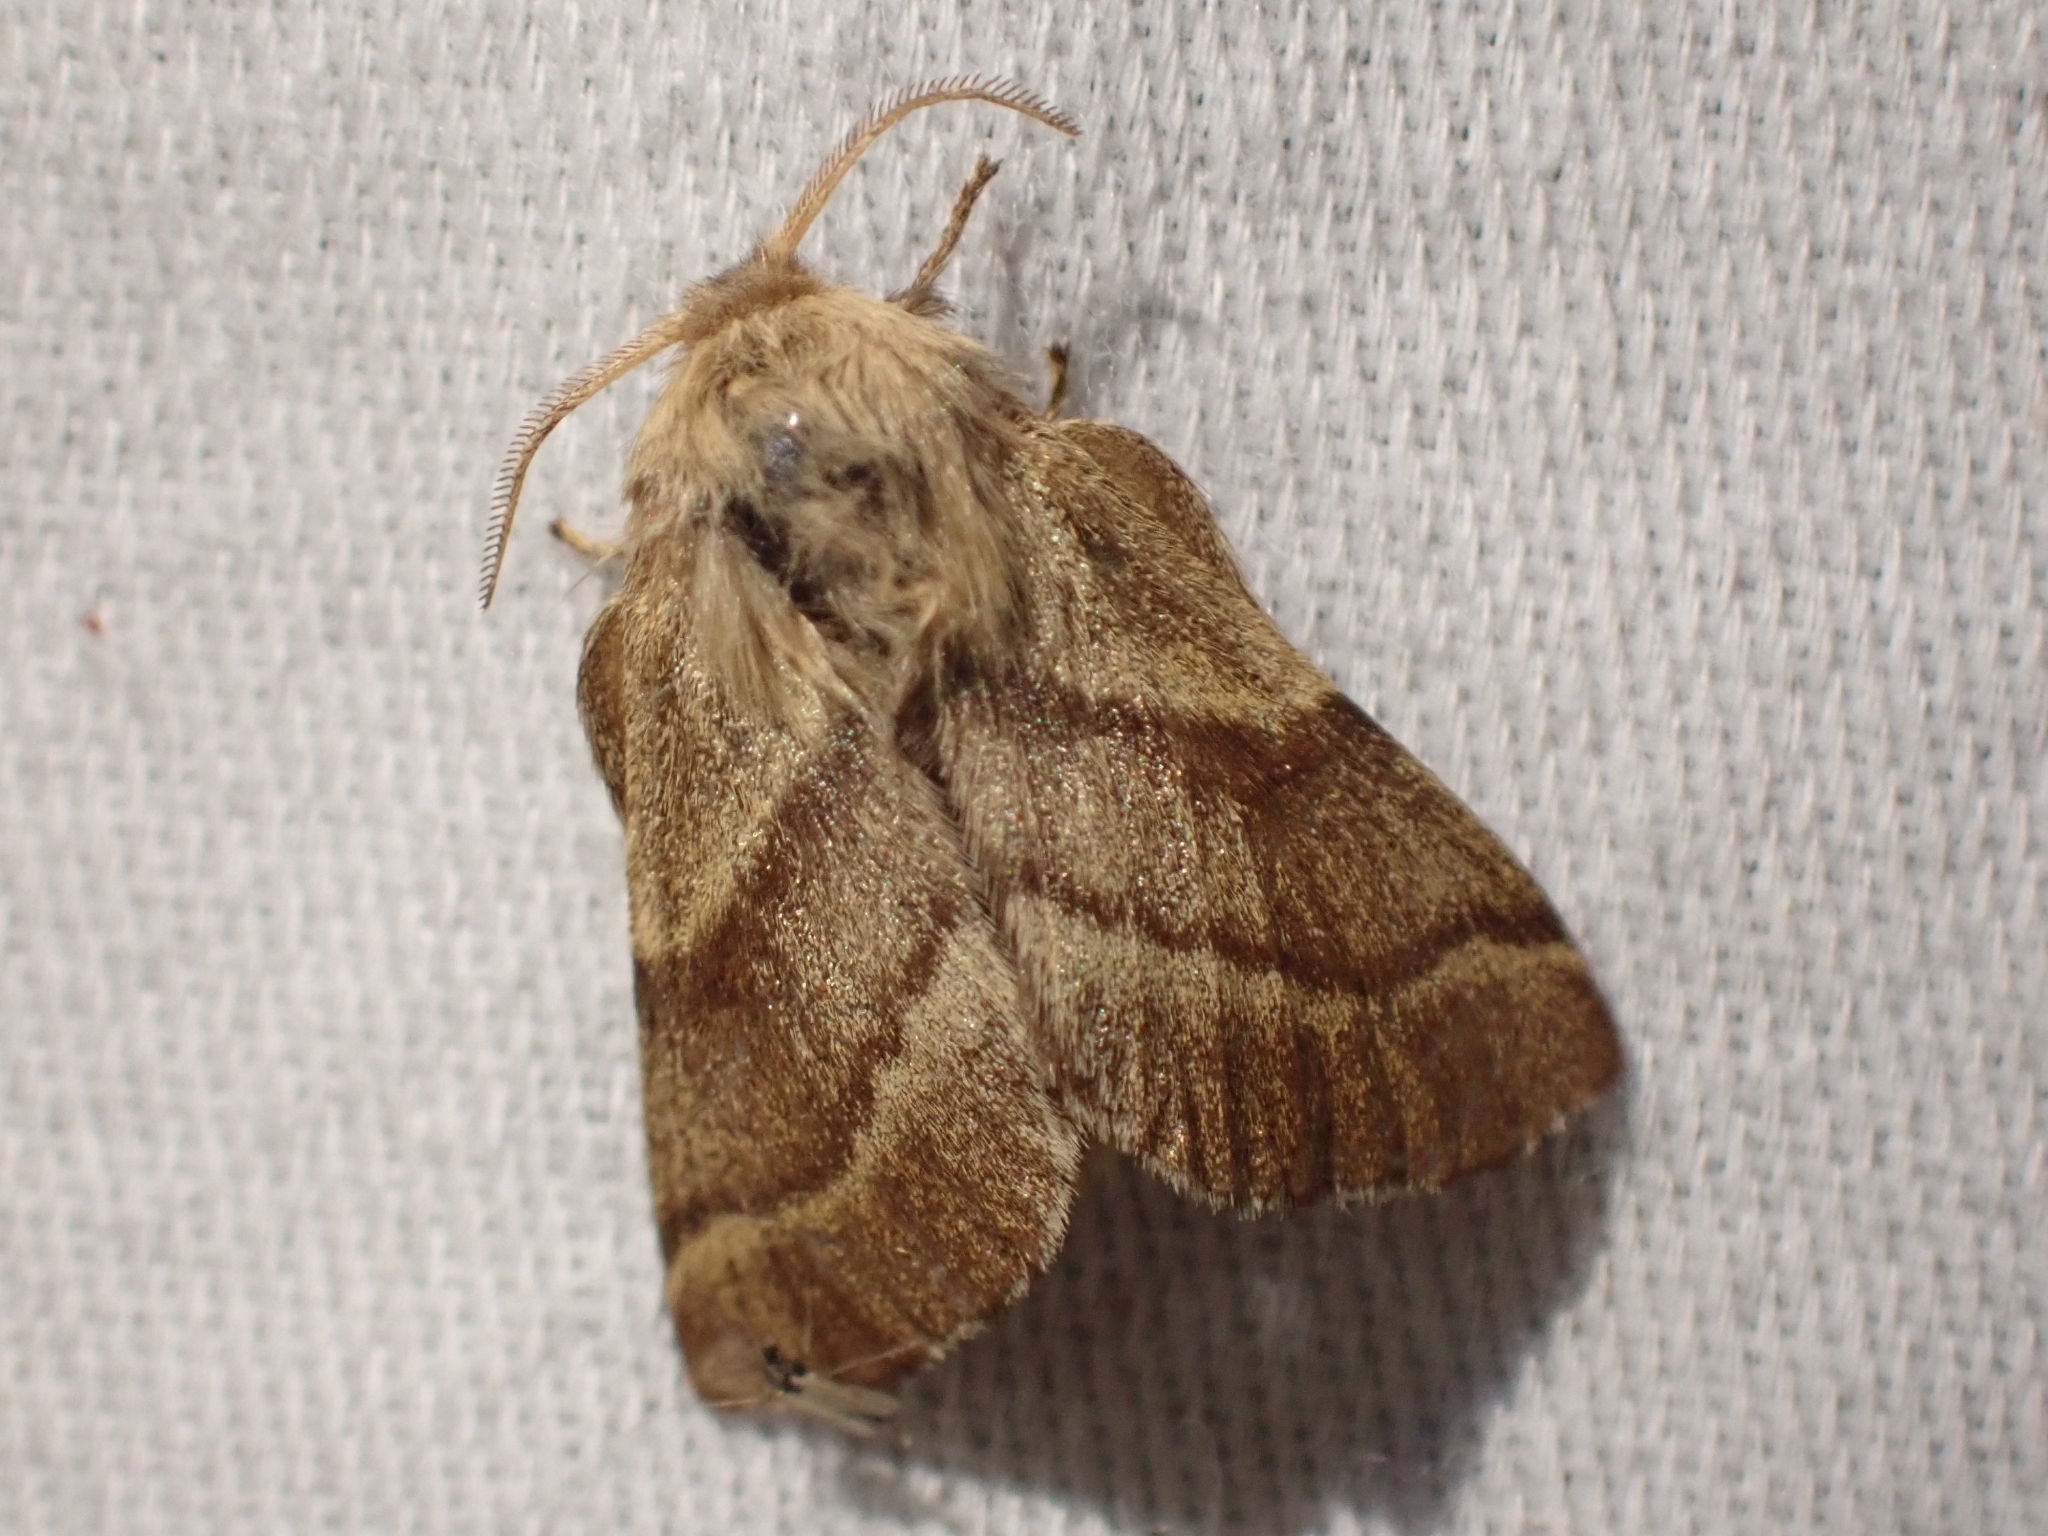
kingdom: Animalia
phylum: Arthropoda
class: Insecta
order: Lepidoptera
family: Lasiocampidae
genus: Malacosoma
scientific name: Malacosoma disstria
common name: Forest tent caterpillar
